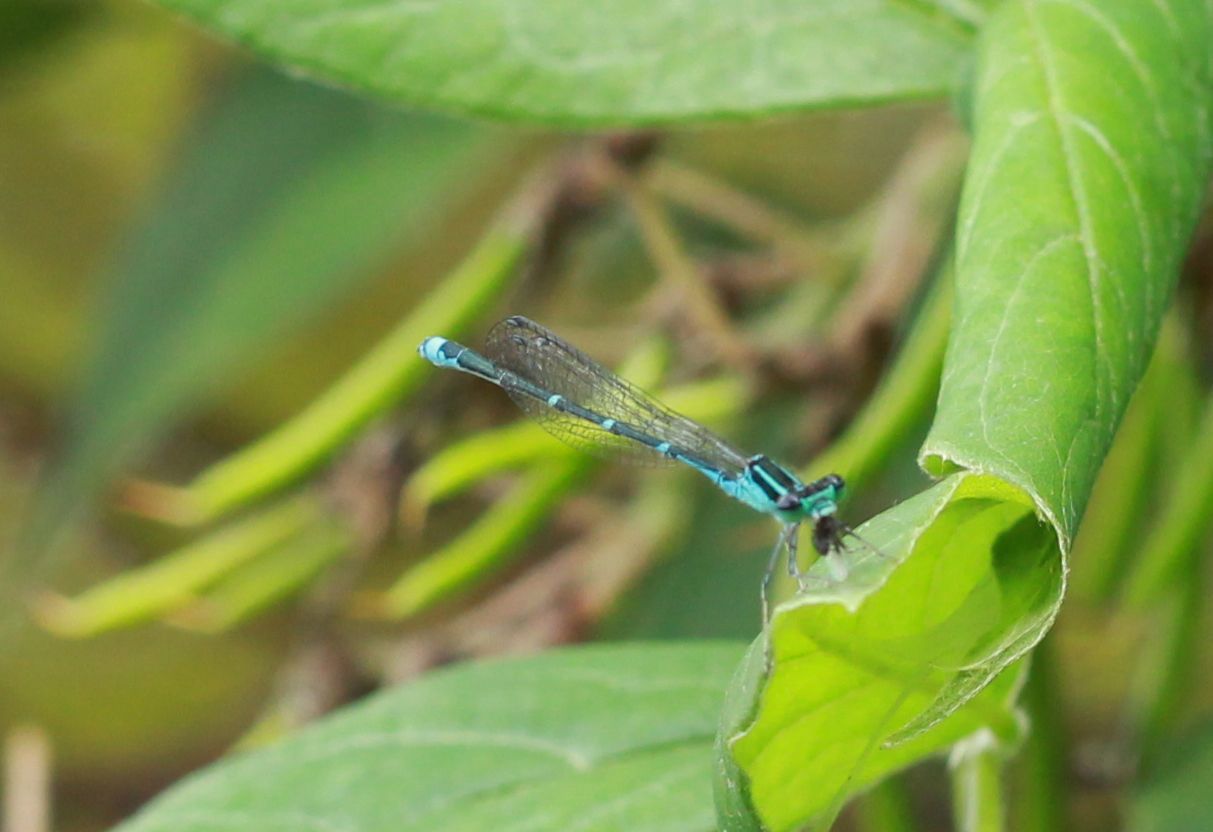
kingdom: Animalia
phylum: Arthropoda
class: Insecta
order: Odonata
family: Coenagrionidae
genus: Enallagma
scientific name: Enallagma exsulans
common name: Stream bluet
